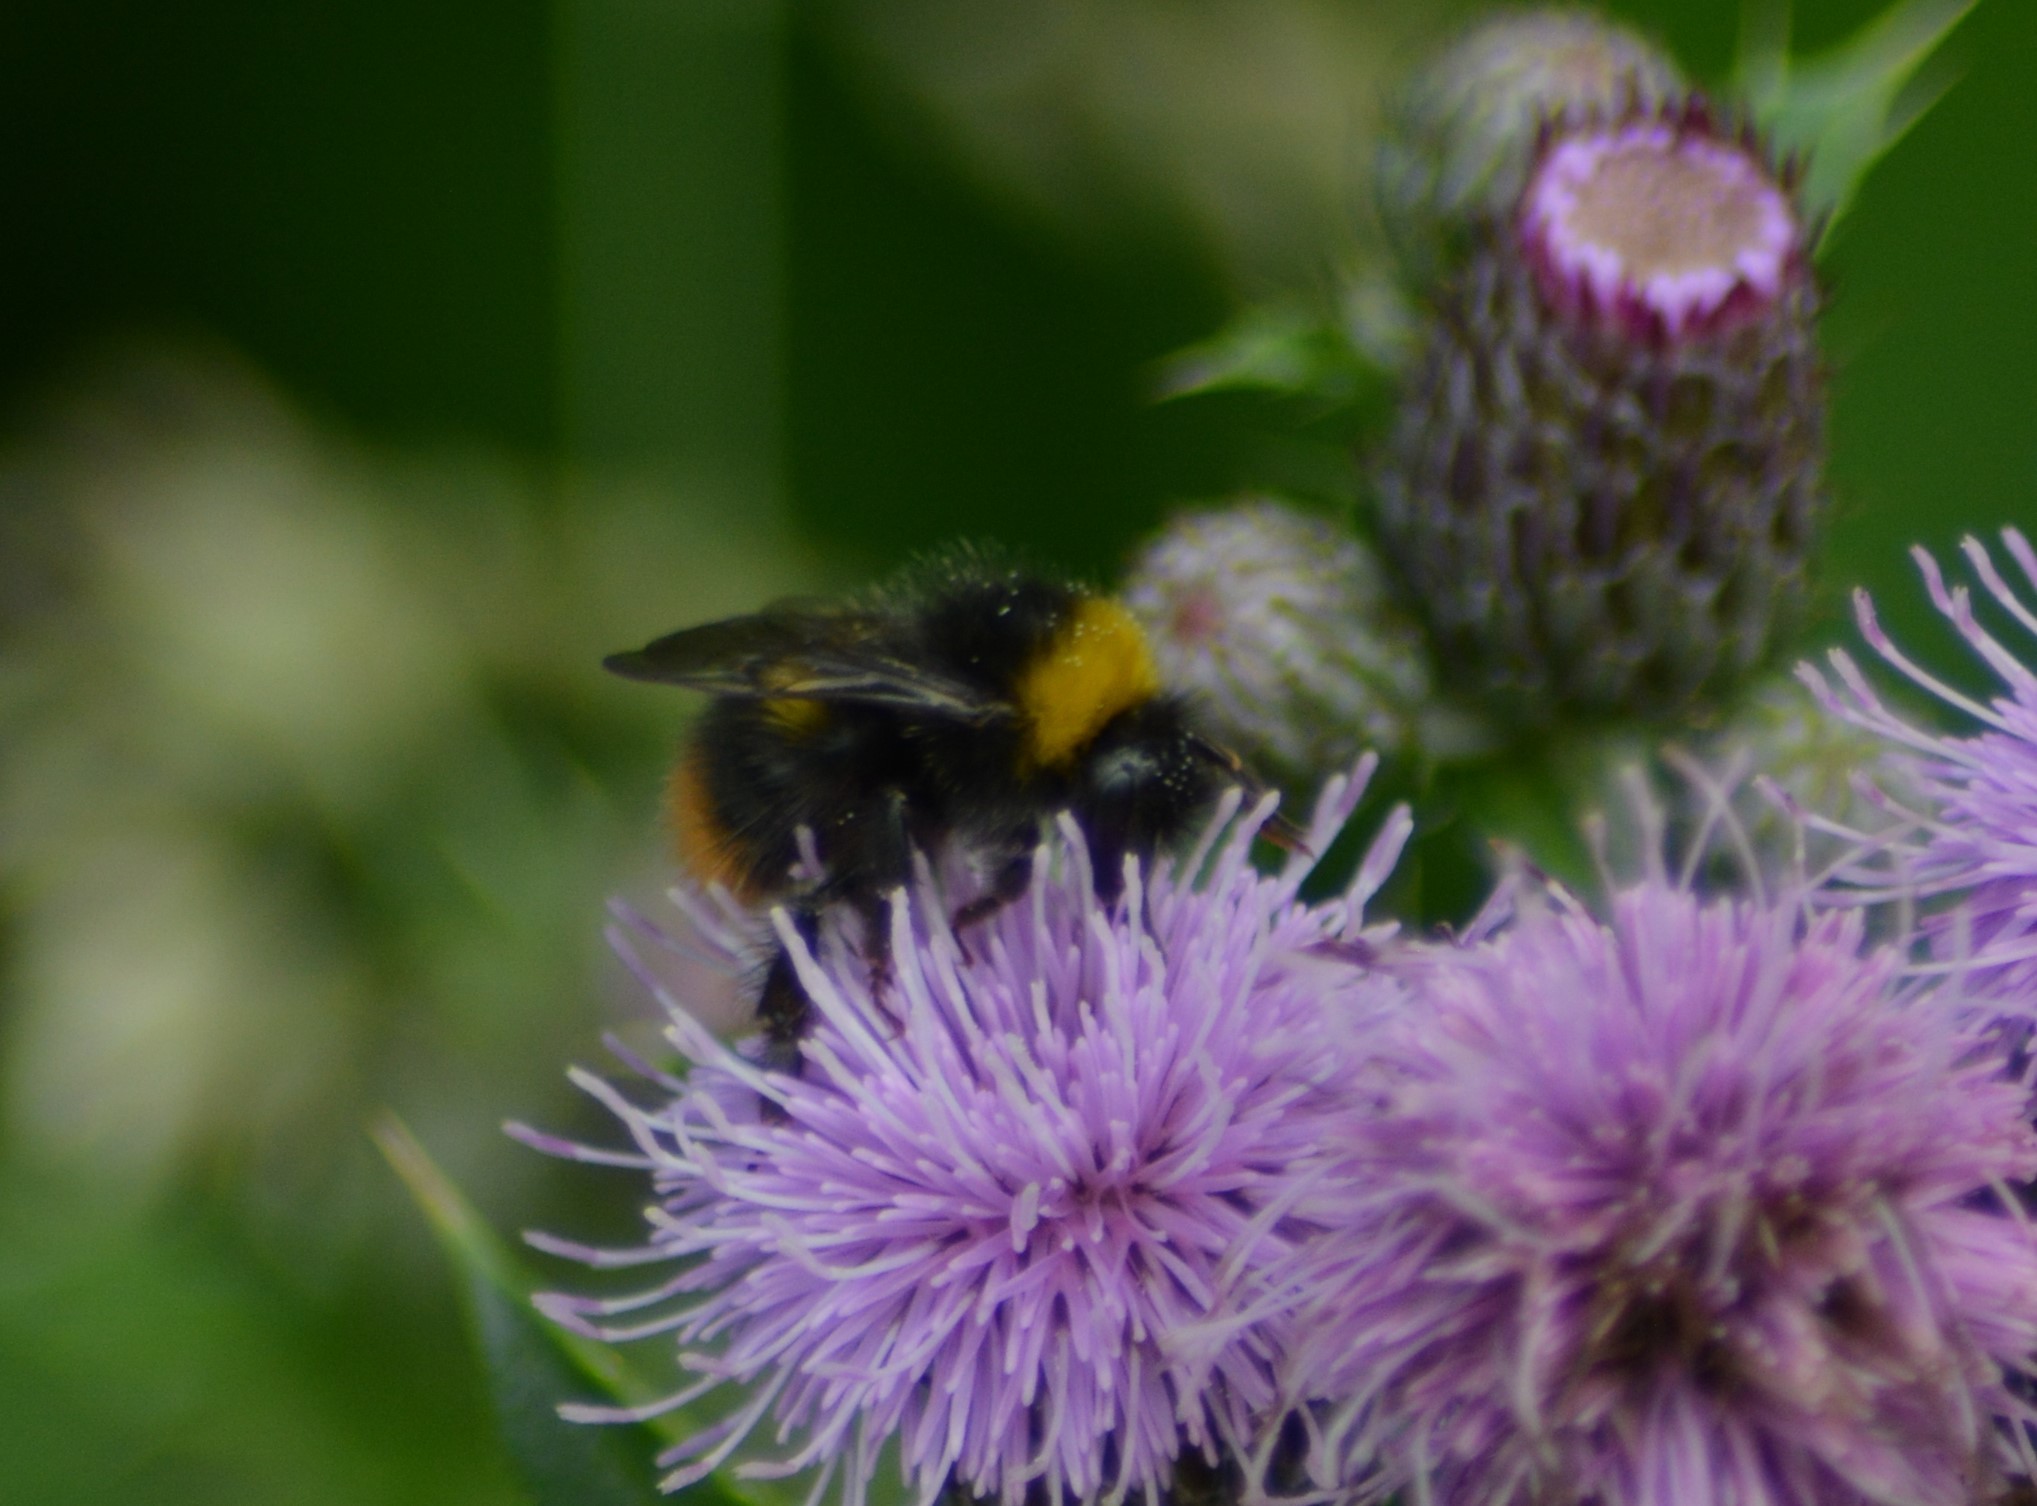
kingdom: Animalia
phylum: Arthropoda
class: Insecta
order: Hymenoptera
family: Apidae
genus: Bombus
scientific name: Bombus pratorum
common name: Early humble-bee
